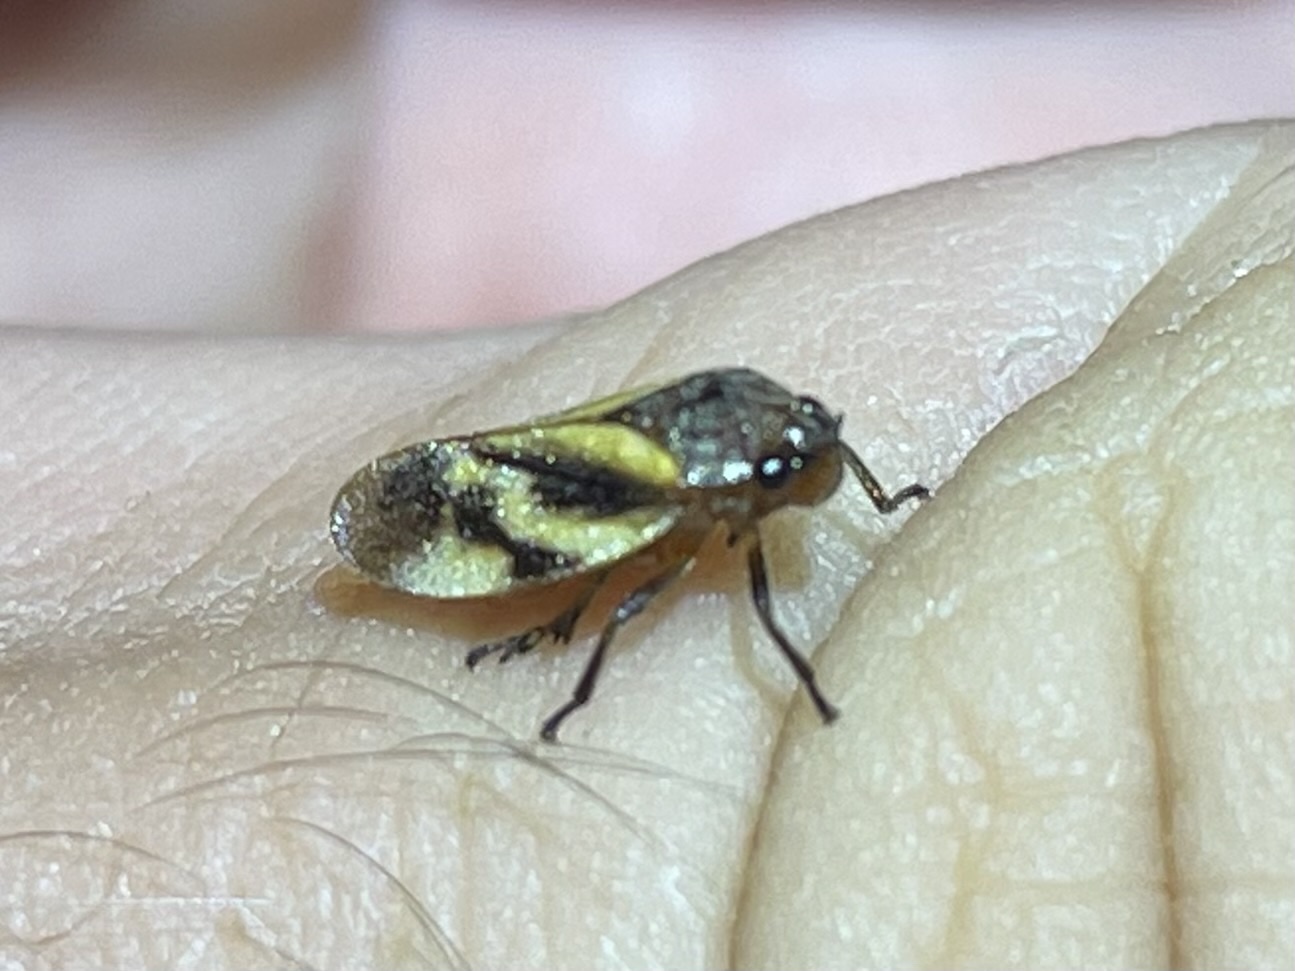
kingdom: Animalia
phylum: Arthropoda
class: Insecta
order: Hemiptera
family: Cercopidae
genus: Aeneolamia
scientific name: Aeneolamia reducta
